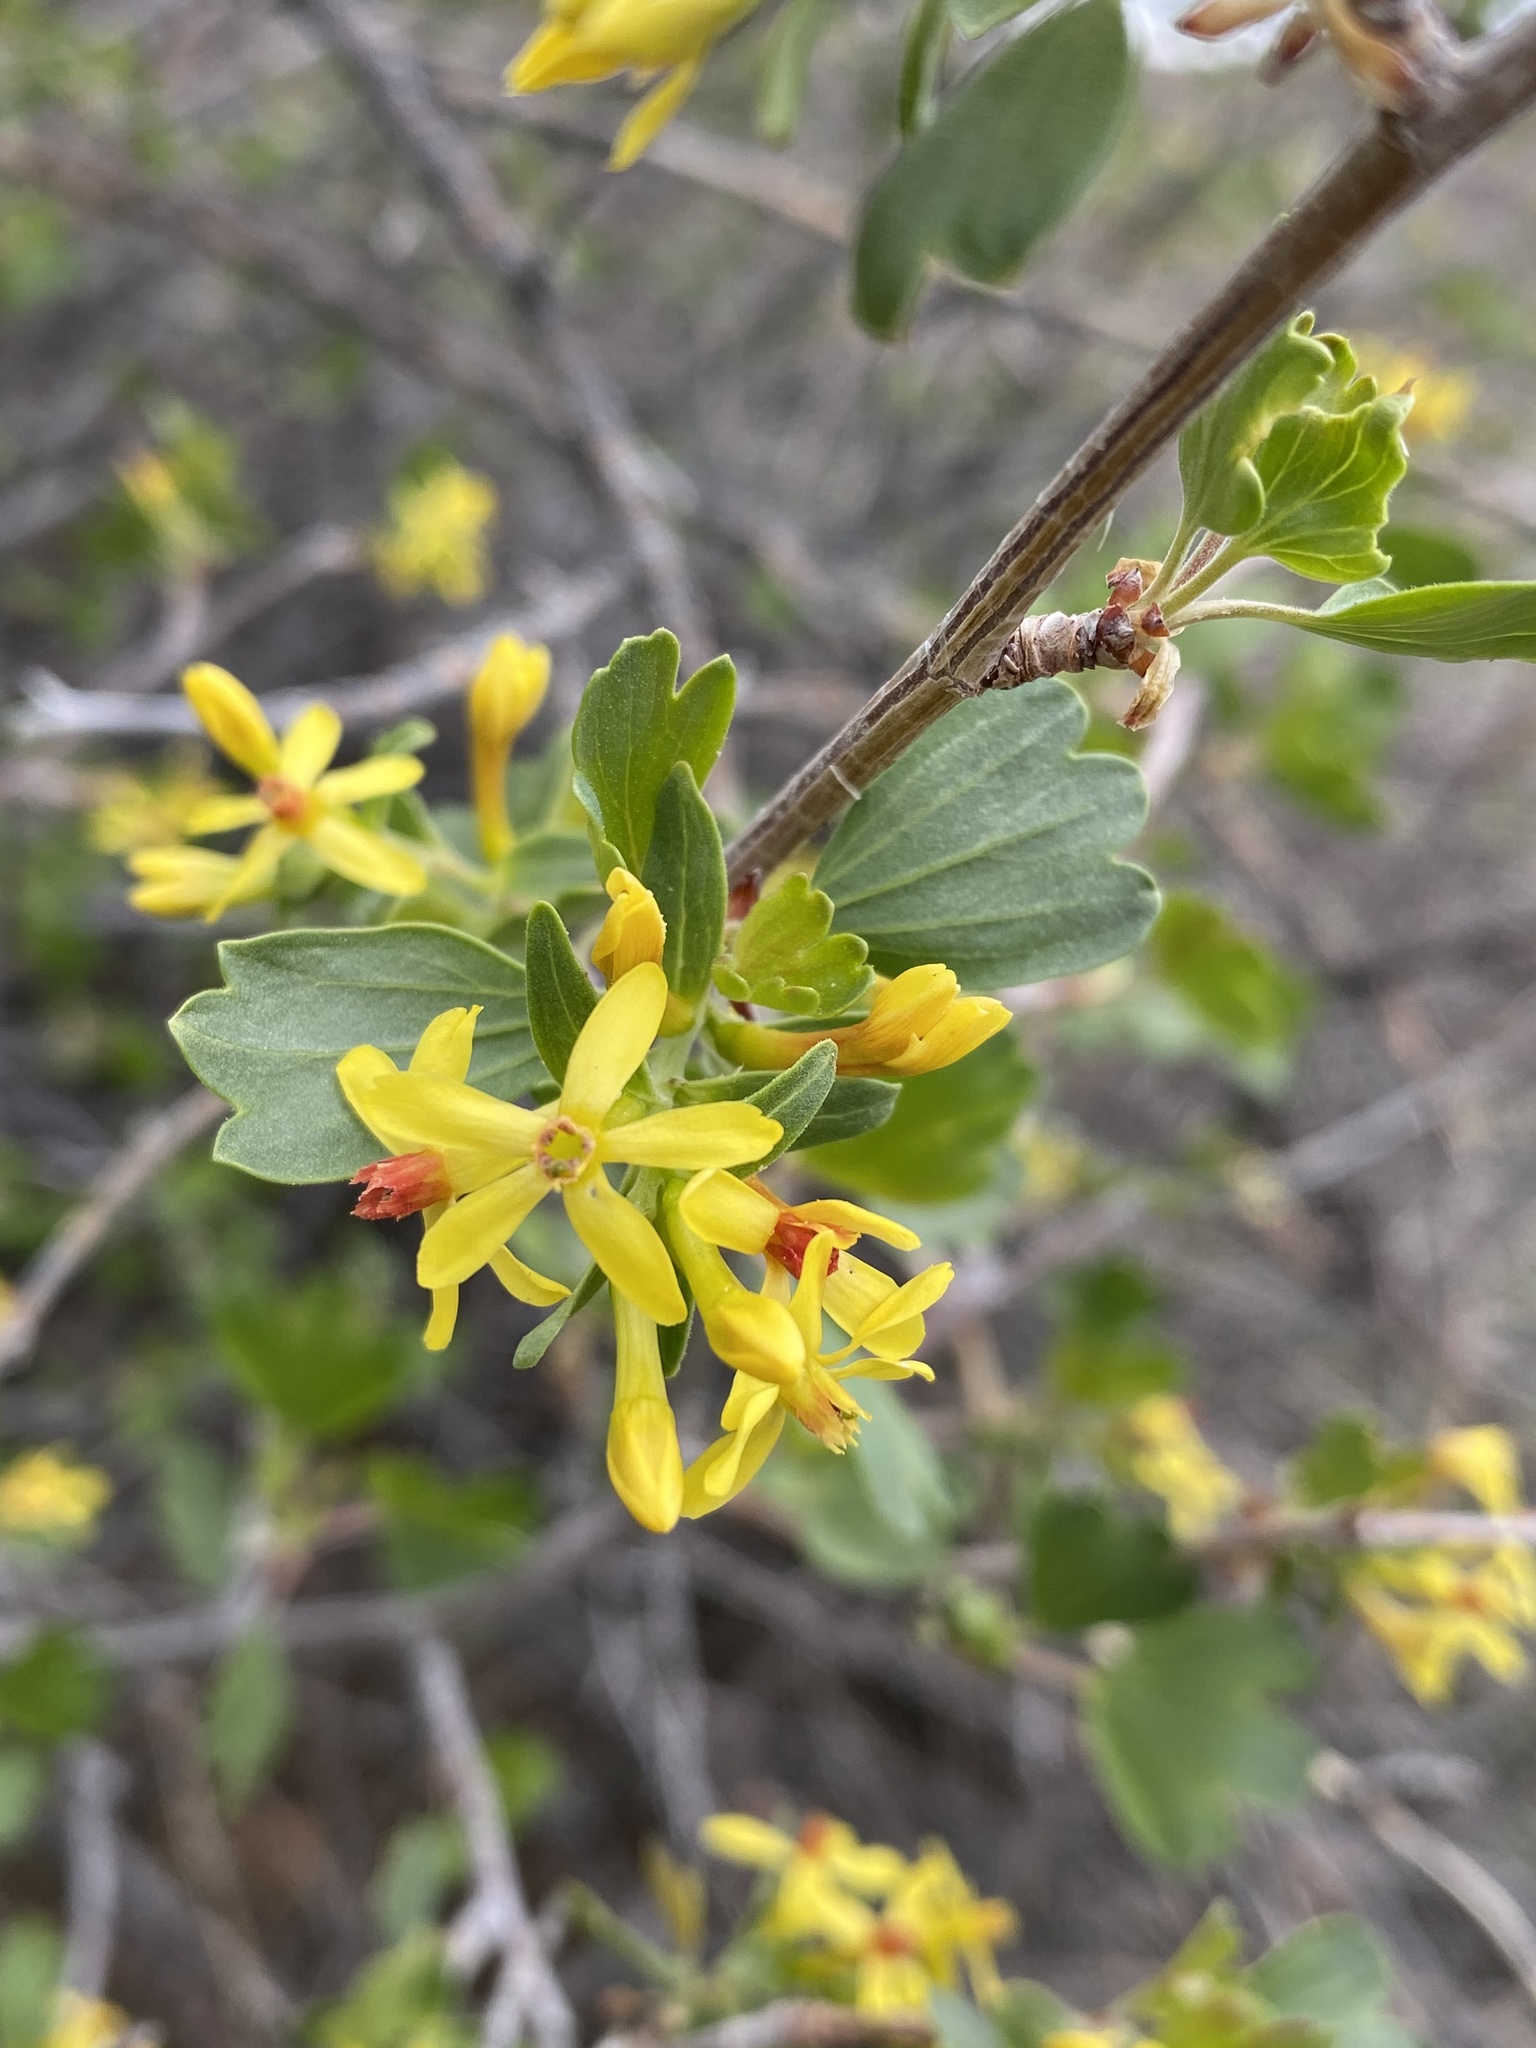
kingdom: Plantae
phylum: Tracheophyta
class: Magnoliopsida
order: Saxifragales
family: Grossulariaceae
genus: Ribes
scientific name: Ribes aureum
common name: Golden currant
